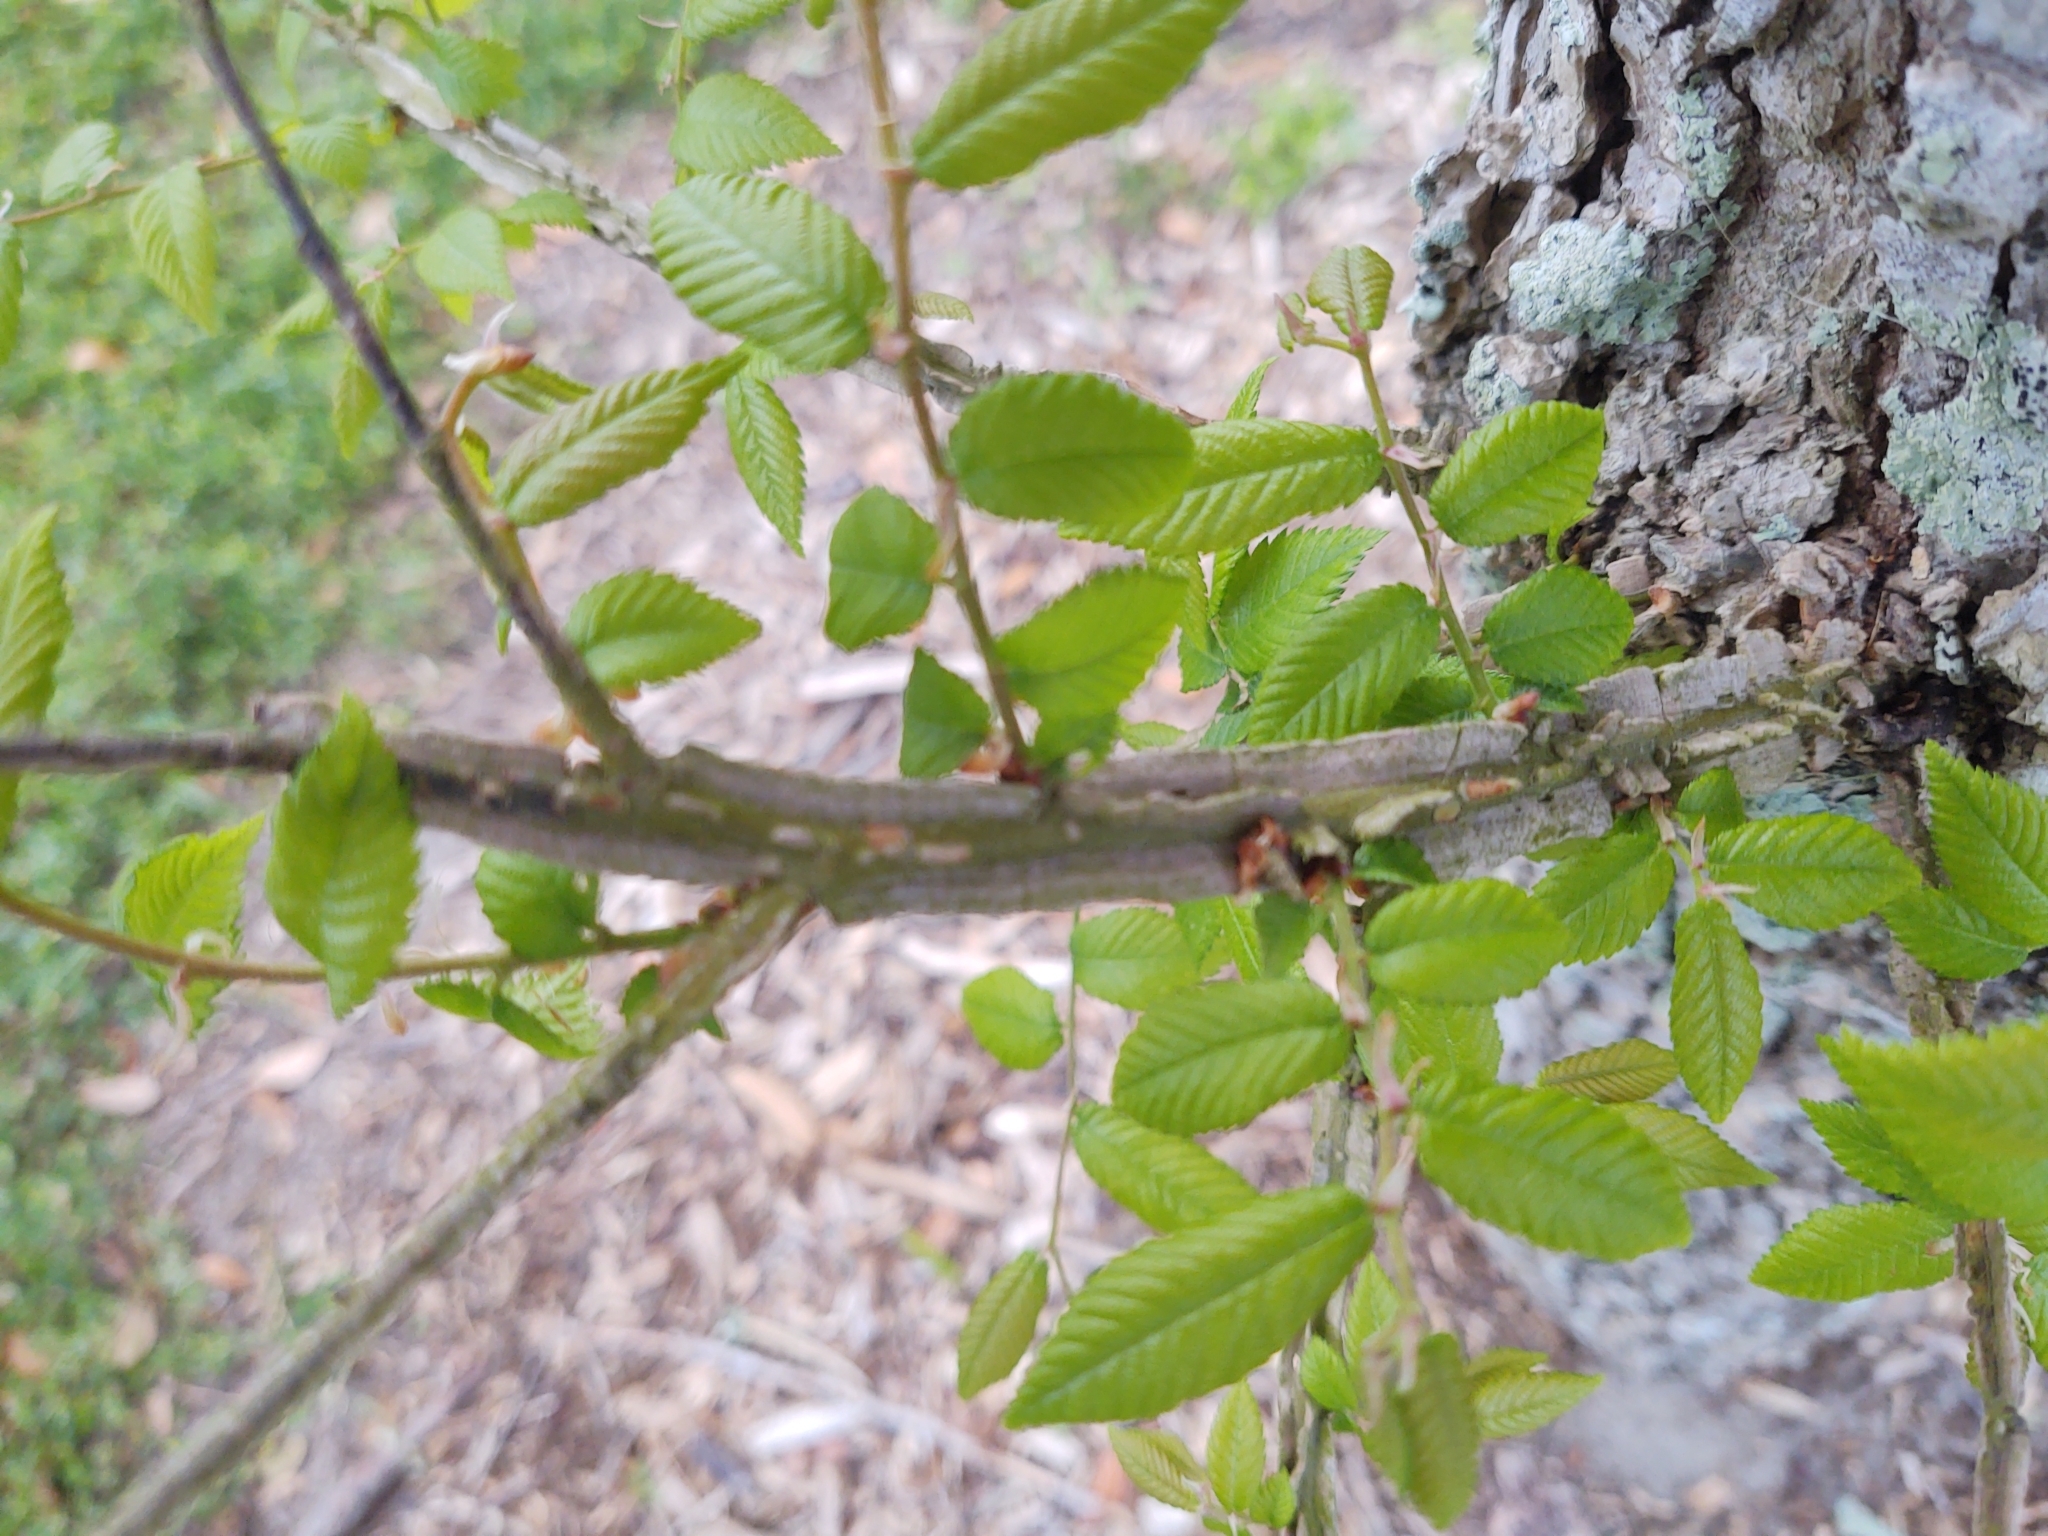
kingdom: Plantae
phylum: Tracheophyta
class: Magnoliopsida
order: Rosales
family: Ulmaceae
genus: Ulmus
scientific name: Ulmus alata
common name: Winged elm
